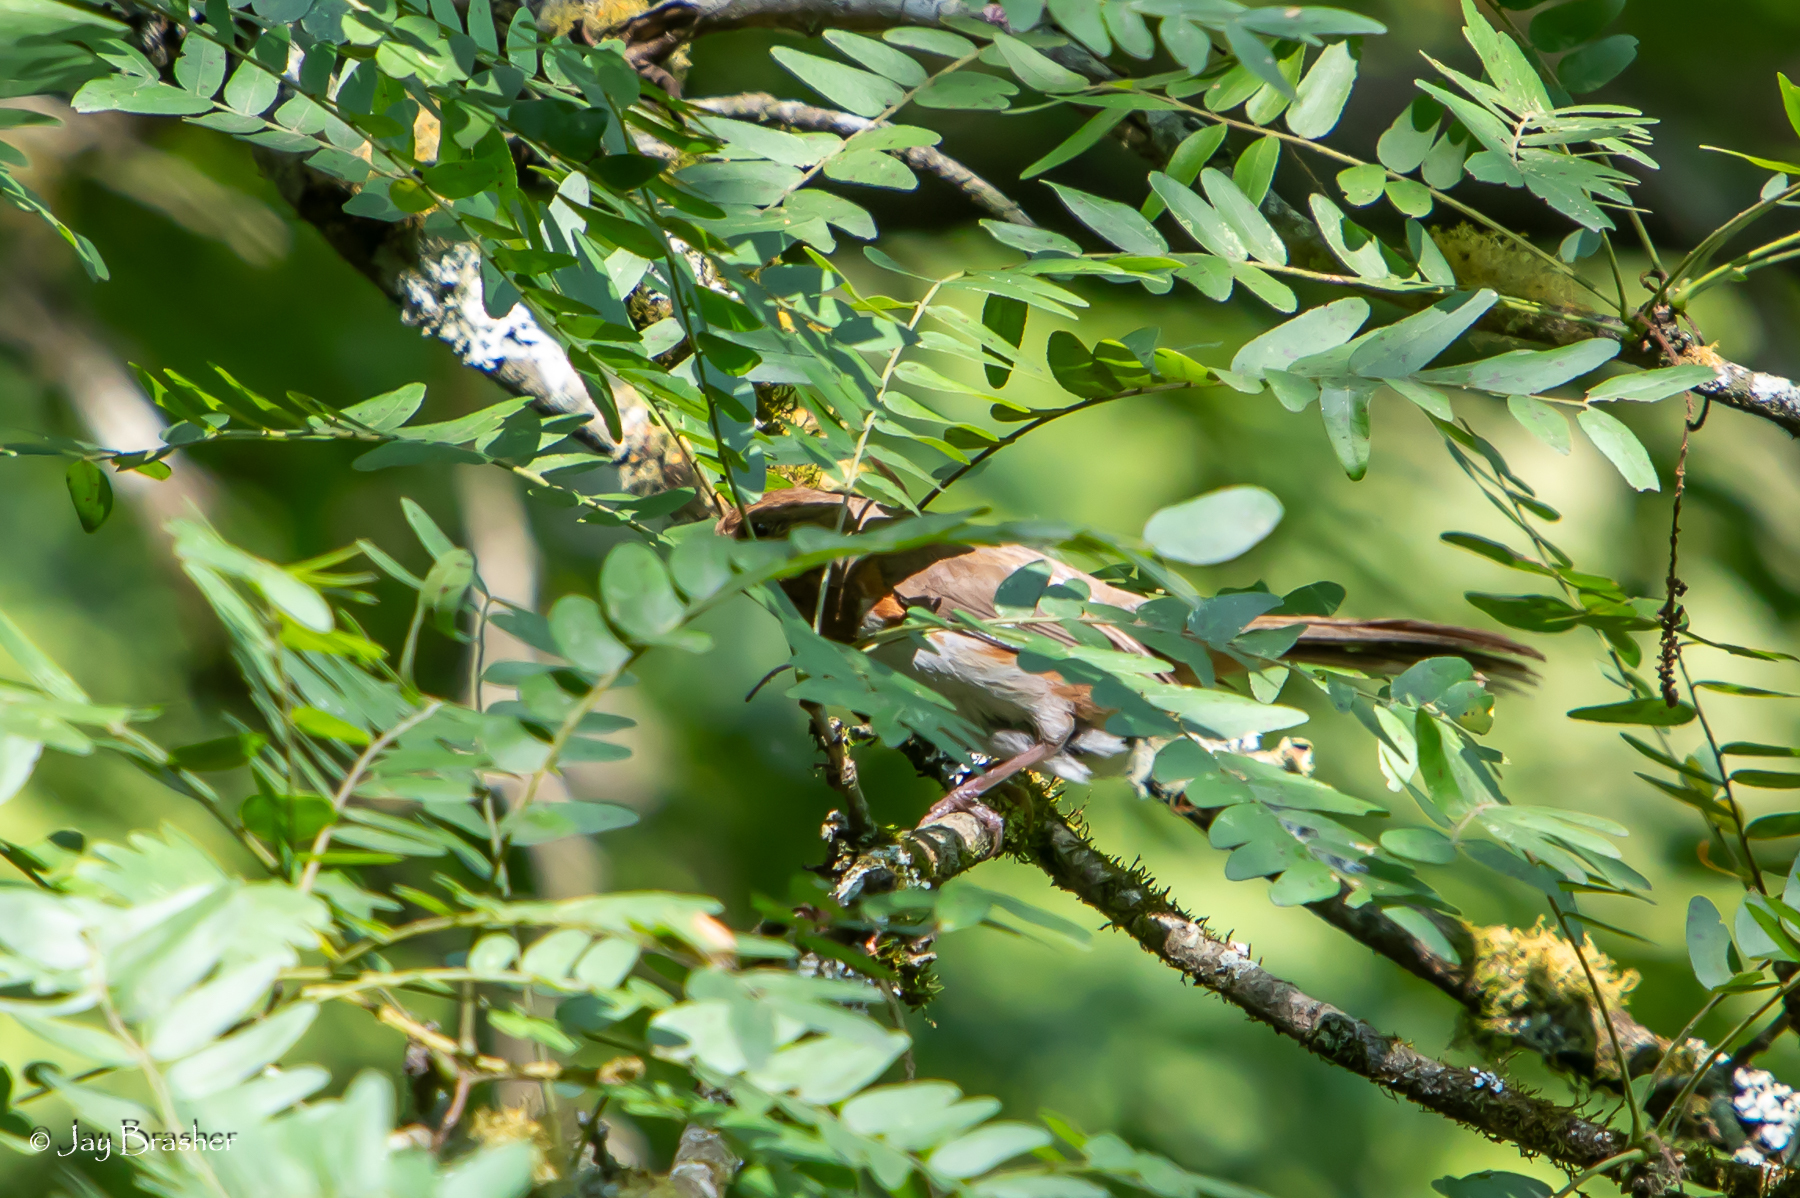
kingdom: Animalia
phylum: Chordata
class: Aves
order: Passeriformes
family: Passerellidae
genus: Pipilo
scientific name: Pipilo erythrophthalmus
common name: Eastern towhee
